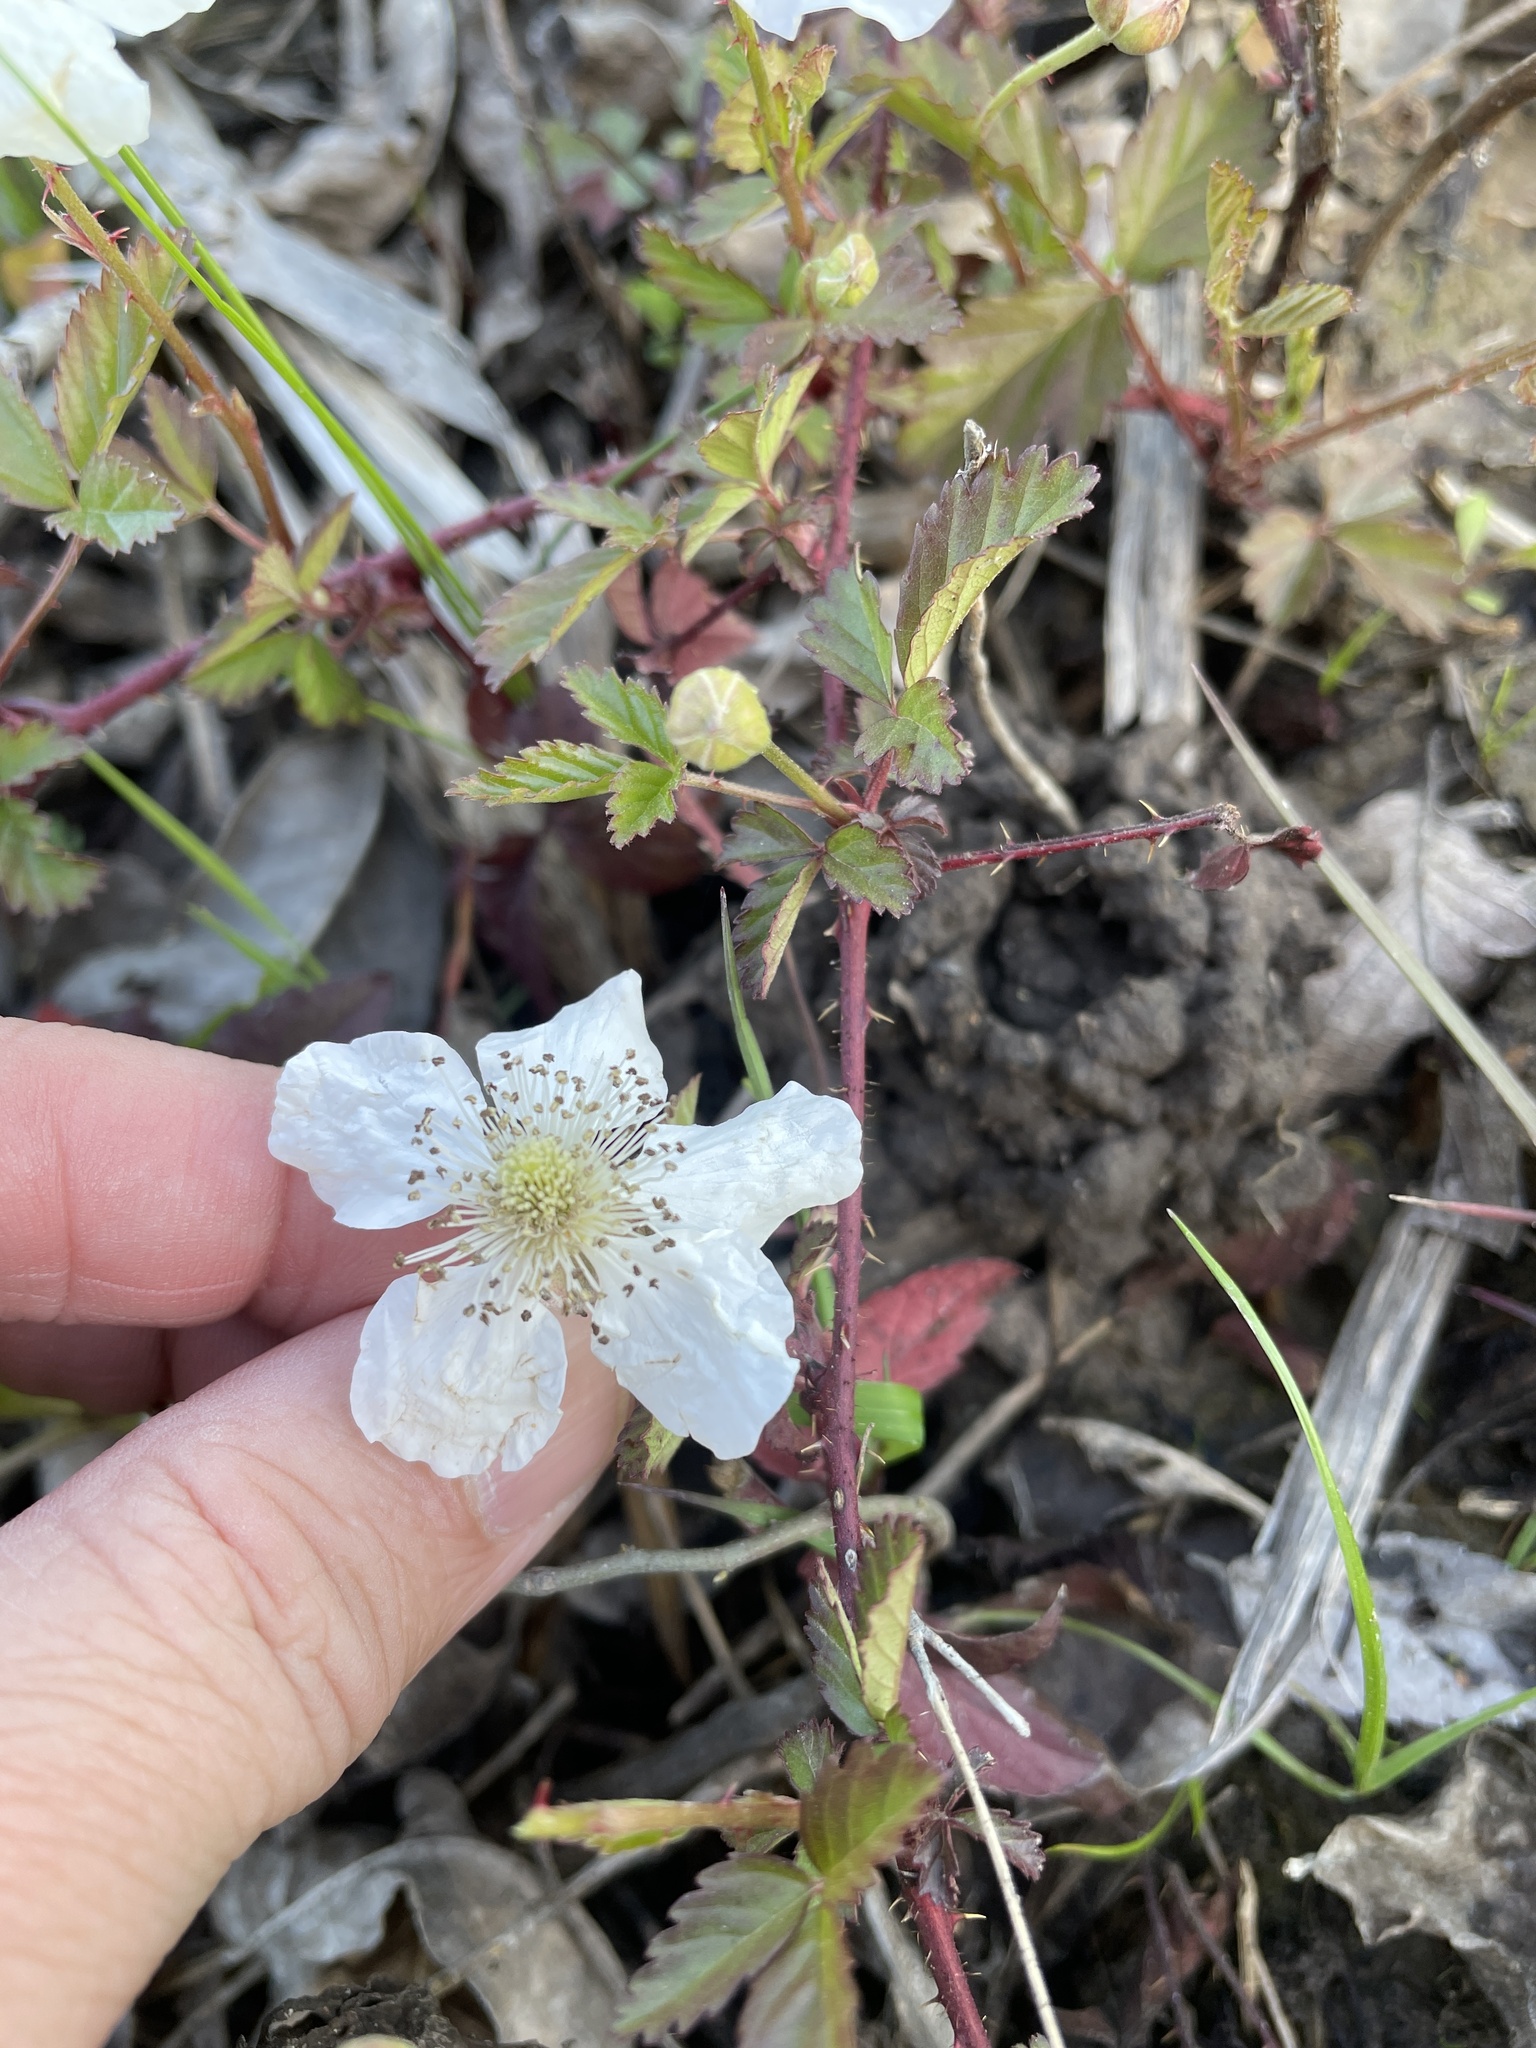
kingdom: Plantae
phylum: Tracheophyta
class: Magnoliopsida
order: Rosales
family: Rosaceae
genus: Rubus
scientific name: Rubus trivialis
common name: Southern dewberry
